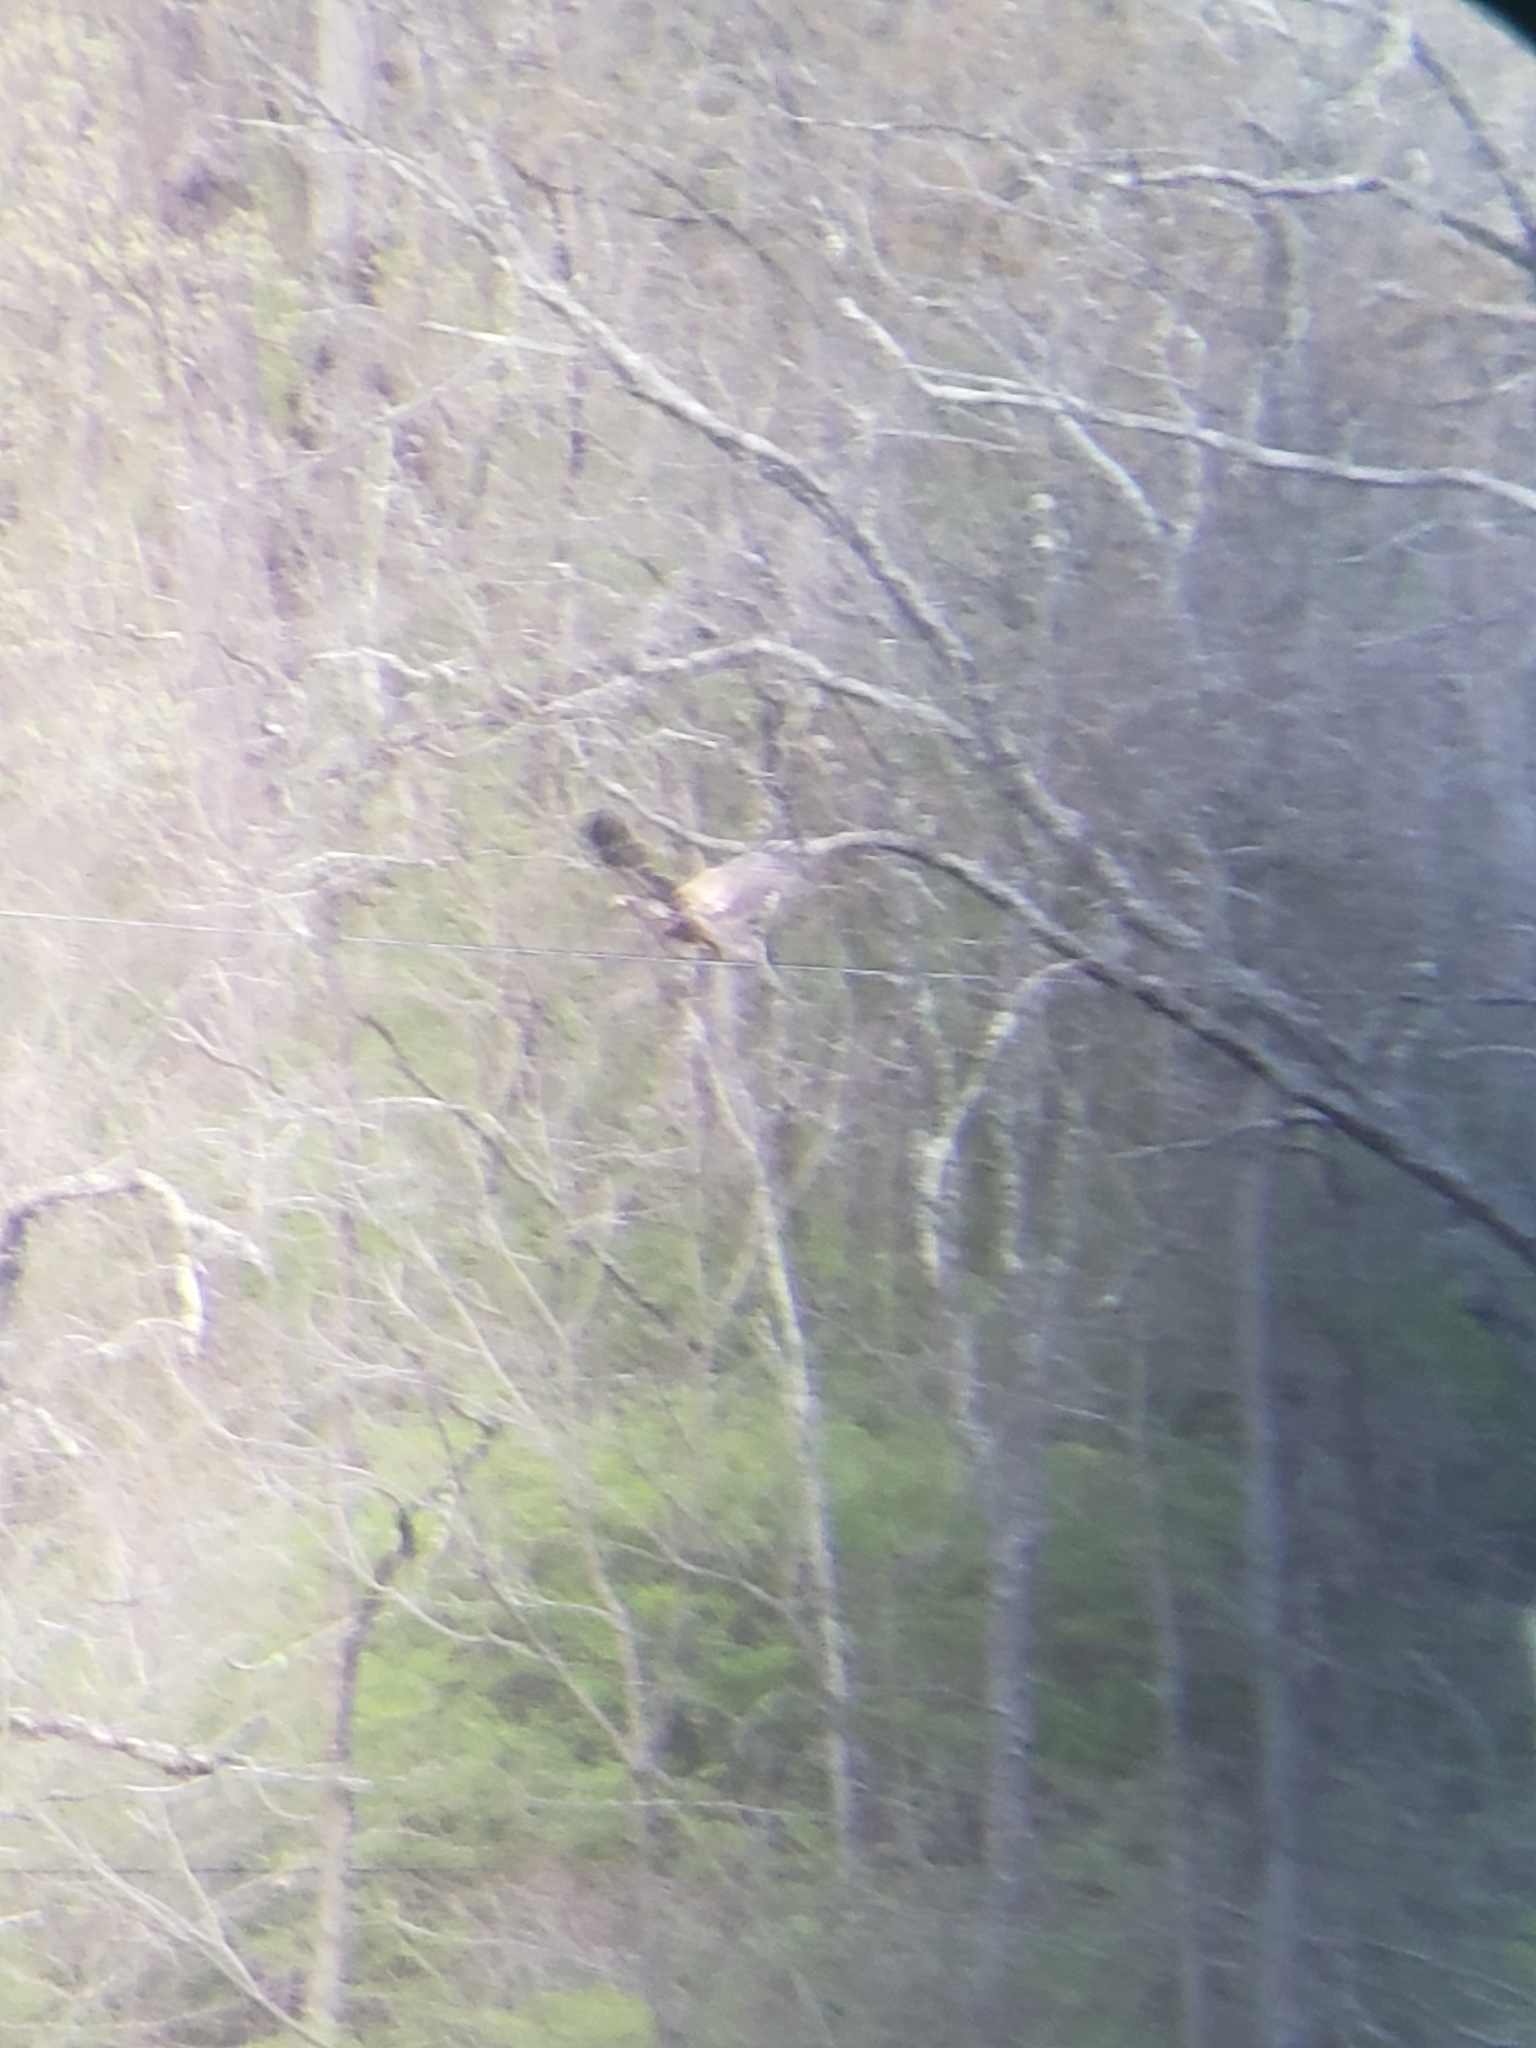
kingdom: Animalia
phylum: Chordata
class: Aves
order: Accipitriformes
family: Accipitridae
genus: Haliaeetus
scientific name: Haliaeetus leucocephalus
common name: Bald eagle
